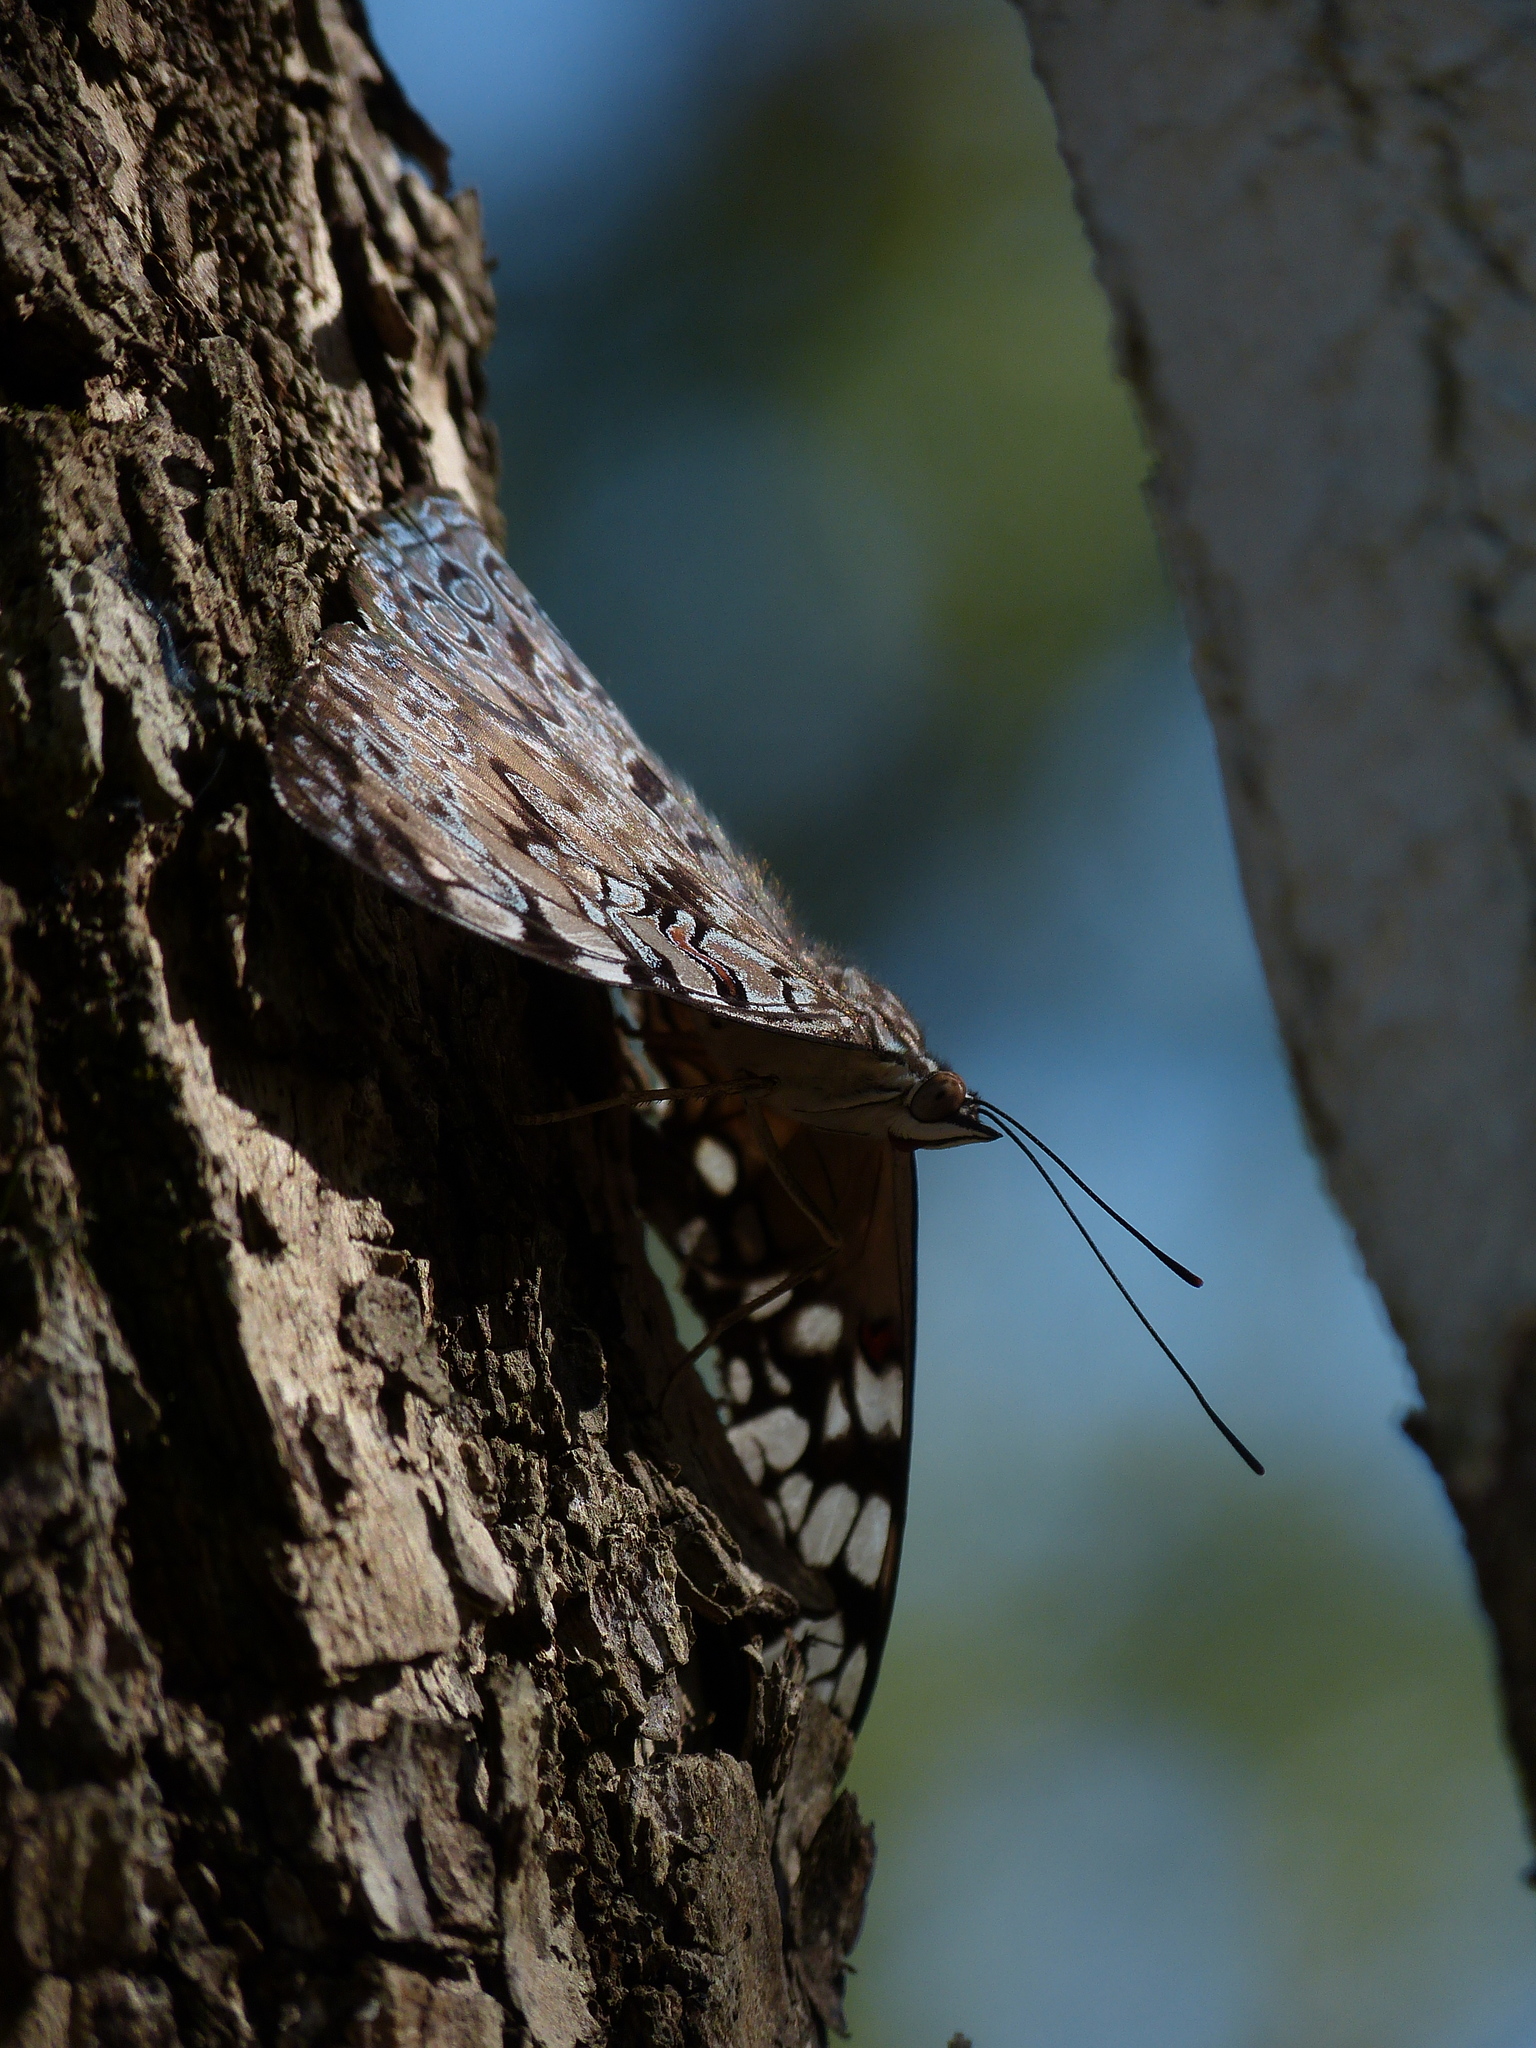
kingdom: Animalia
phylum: Arthropoda
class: Insecta
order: Lepidoptera
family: Nymphalidae
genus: Hamadryas
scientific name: Hamadryas guatemalena
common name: Guatemalan cracker
